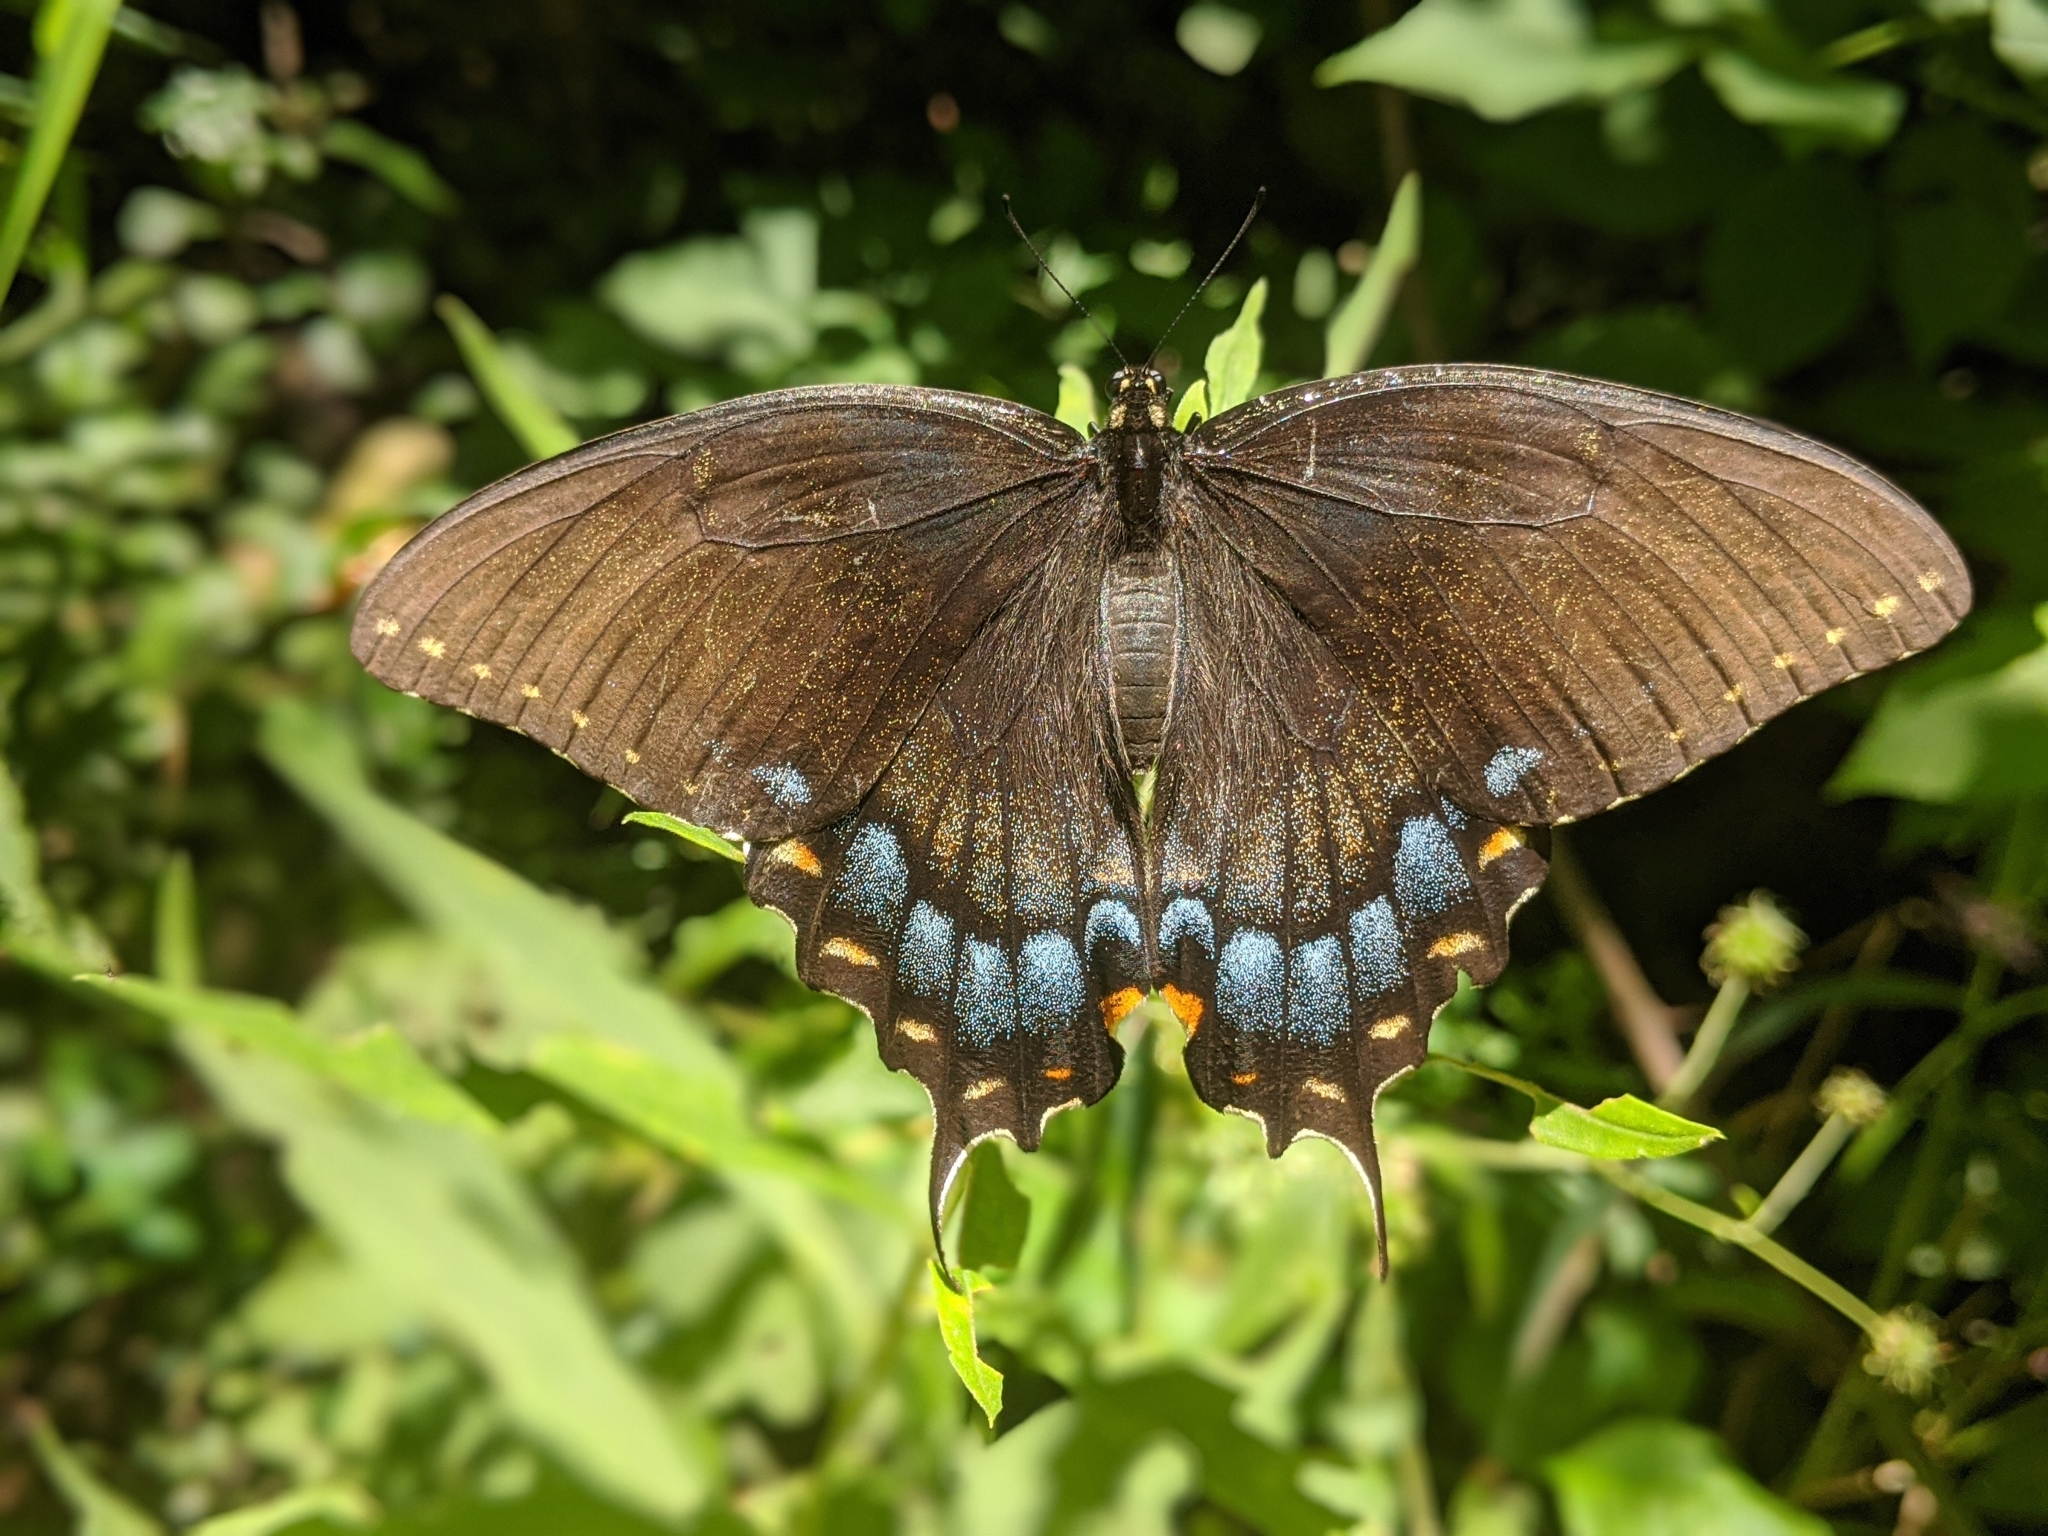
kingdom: Animalia
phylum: Arthropoda
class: Insecta
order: Lepidoptera
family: Papilionidae
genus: Papilio
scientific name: Papilio glaucus
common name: Tiger swallowtail
